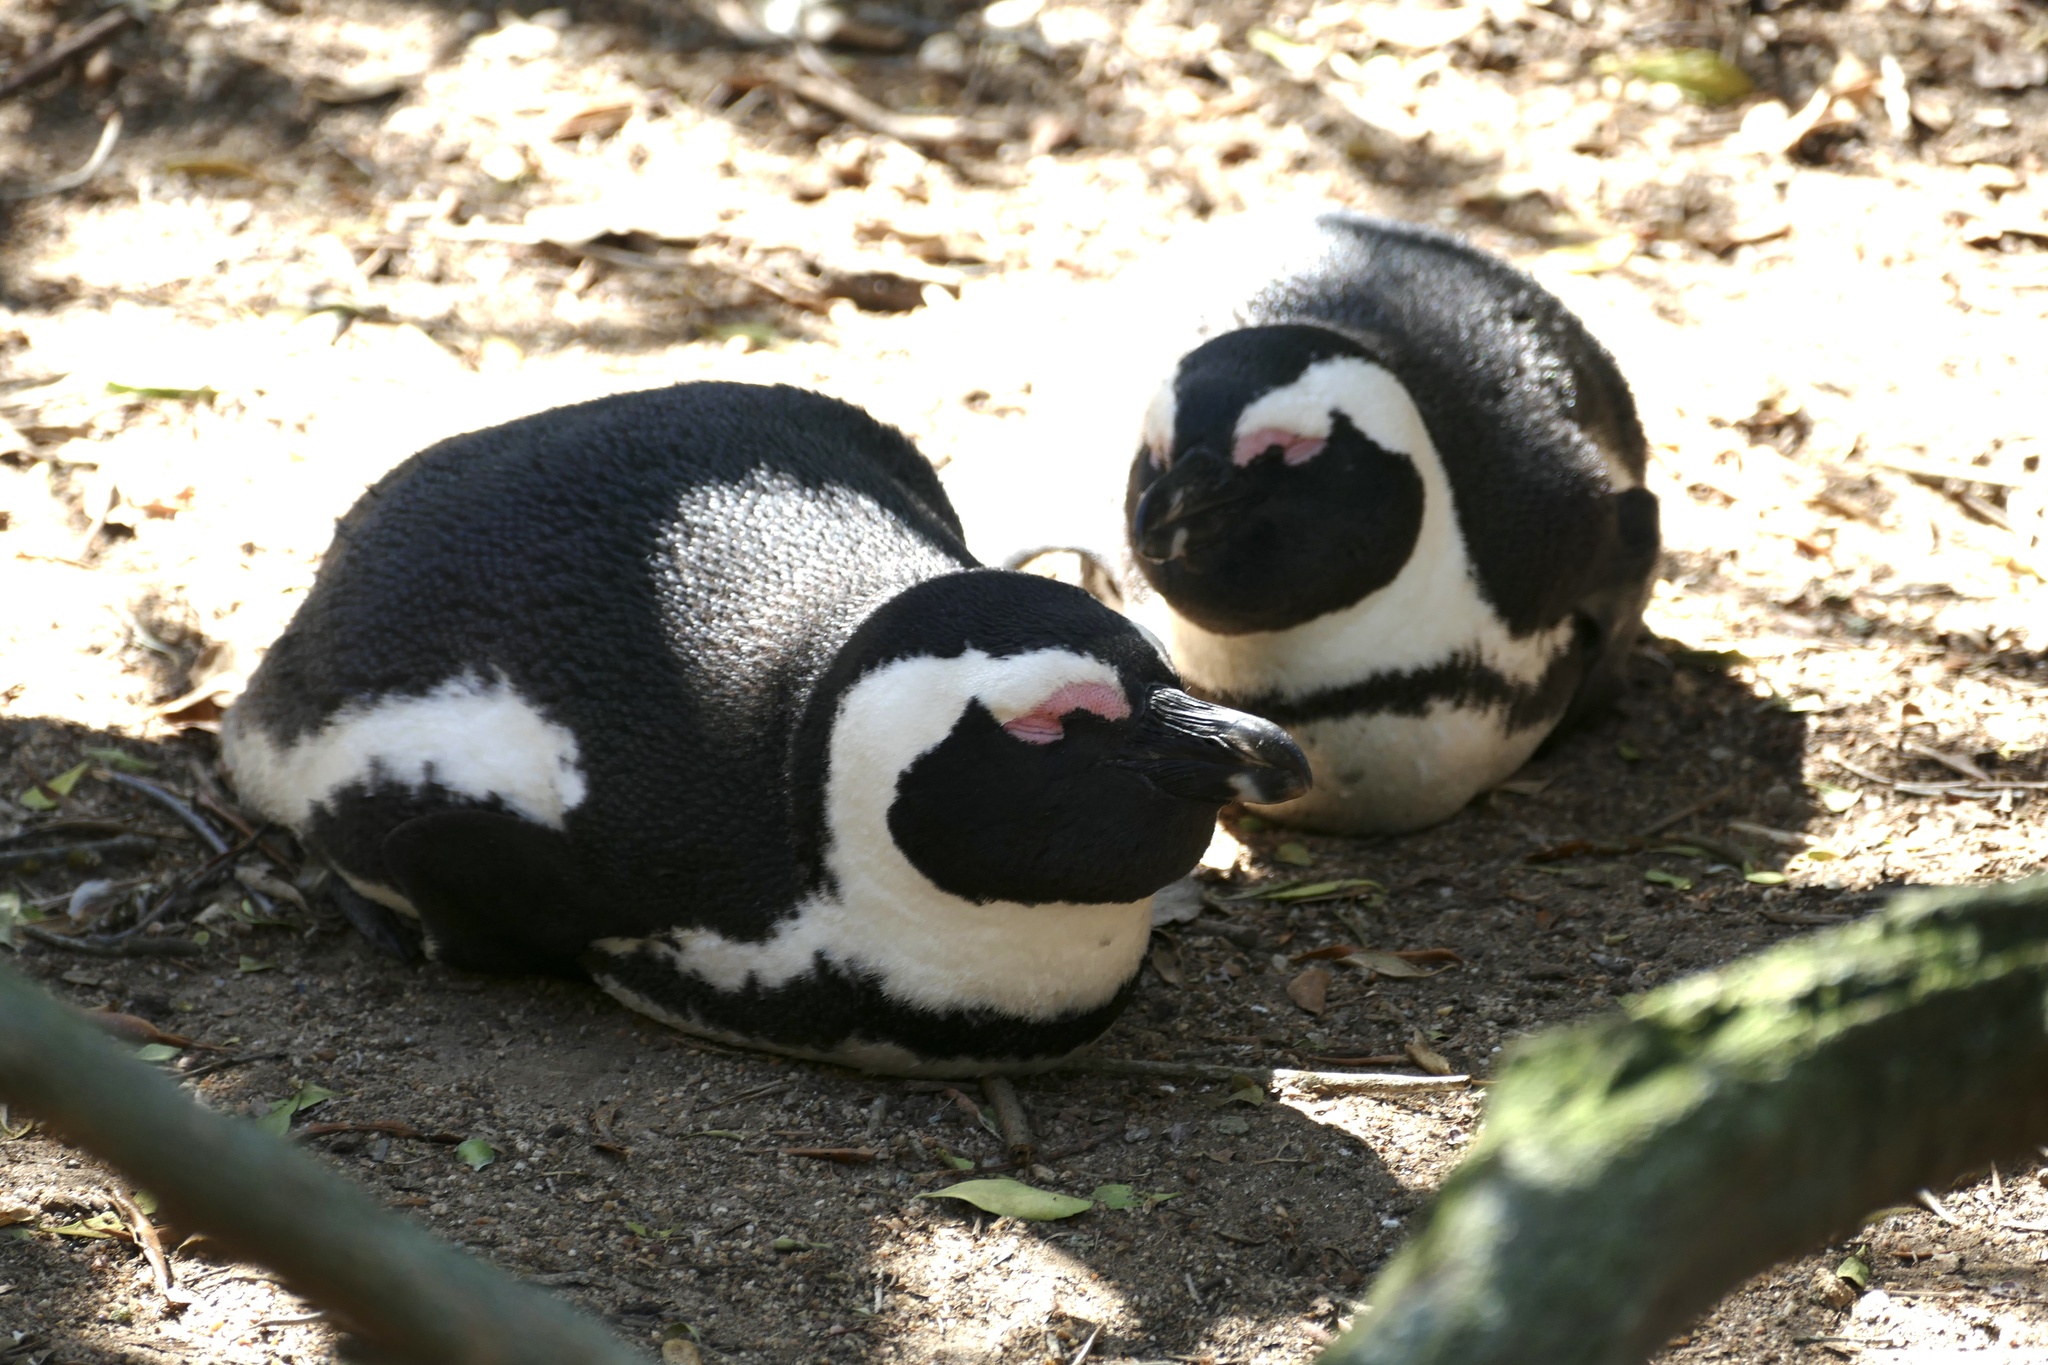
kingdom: Animalia
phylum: Chordata
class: Aves
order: Sphenisciformes
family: Spheniscidae
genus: Spheniscus
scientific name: Spheniscus demersus
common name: African penguin
